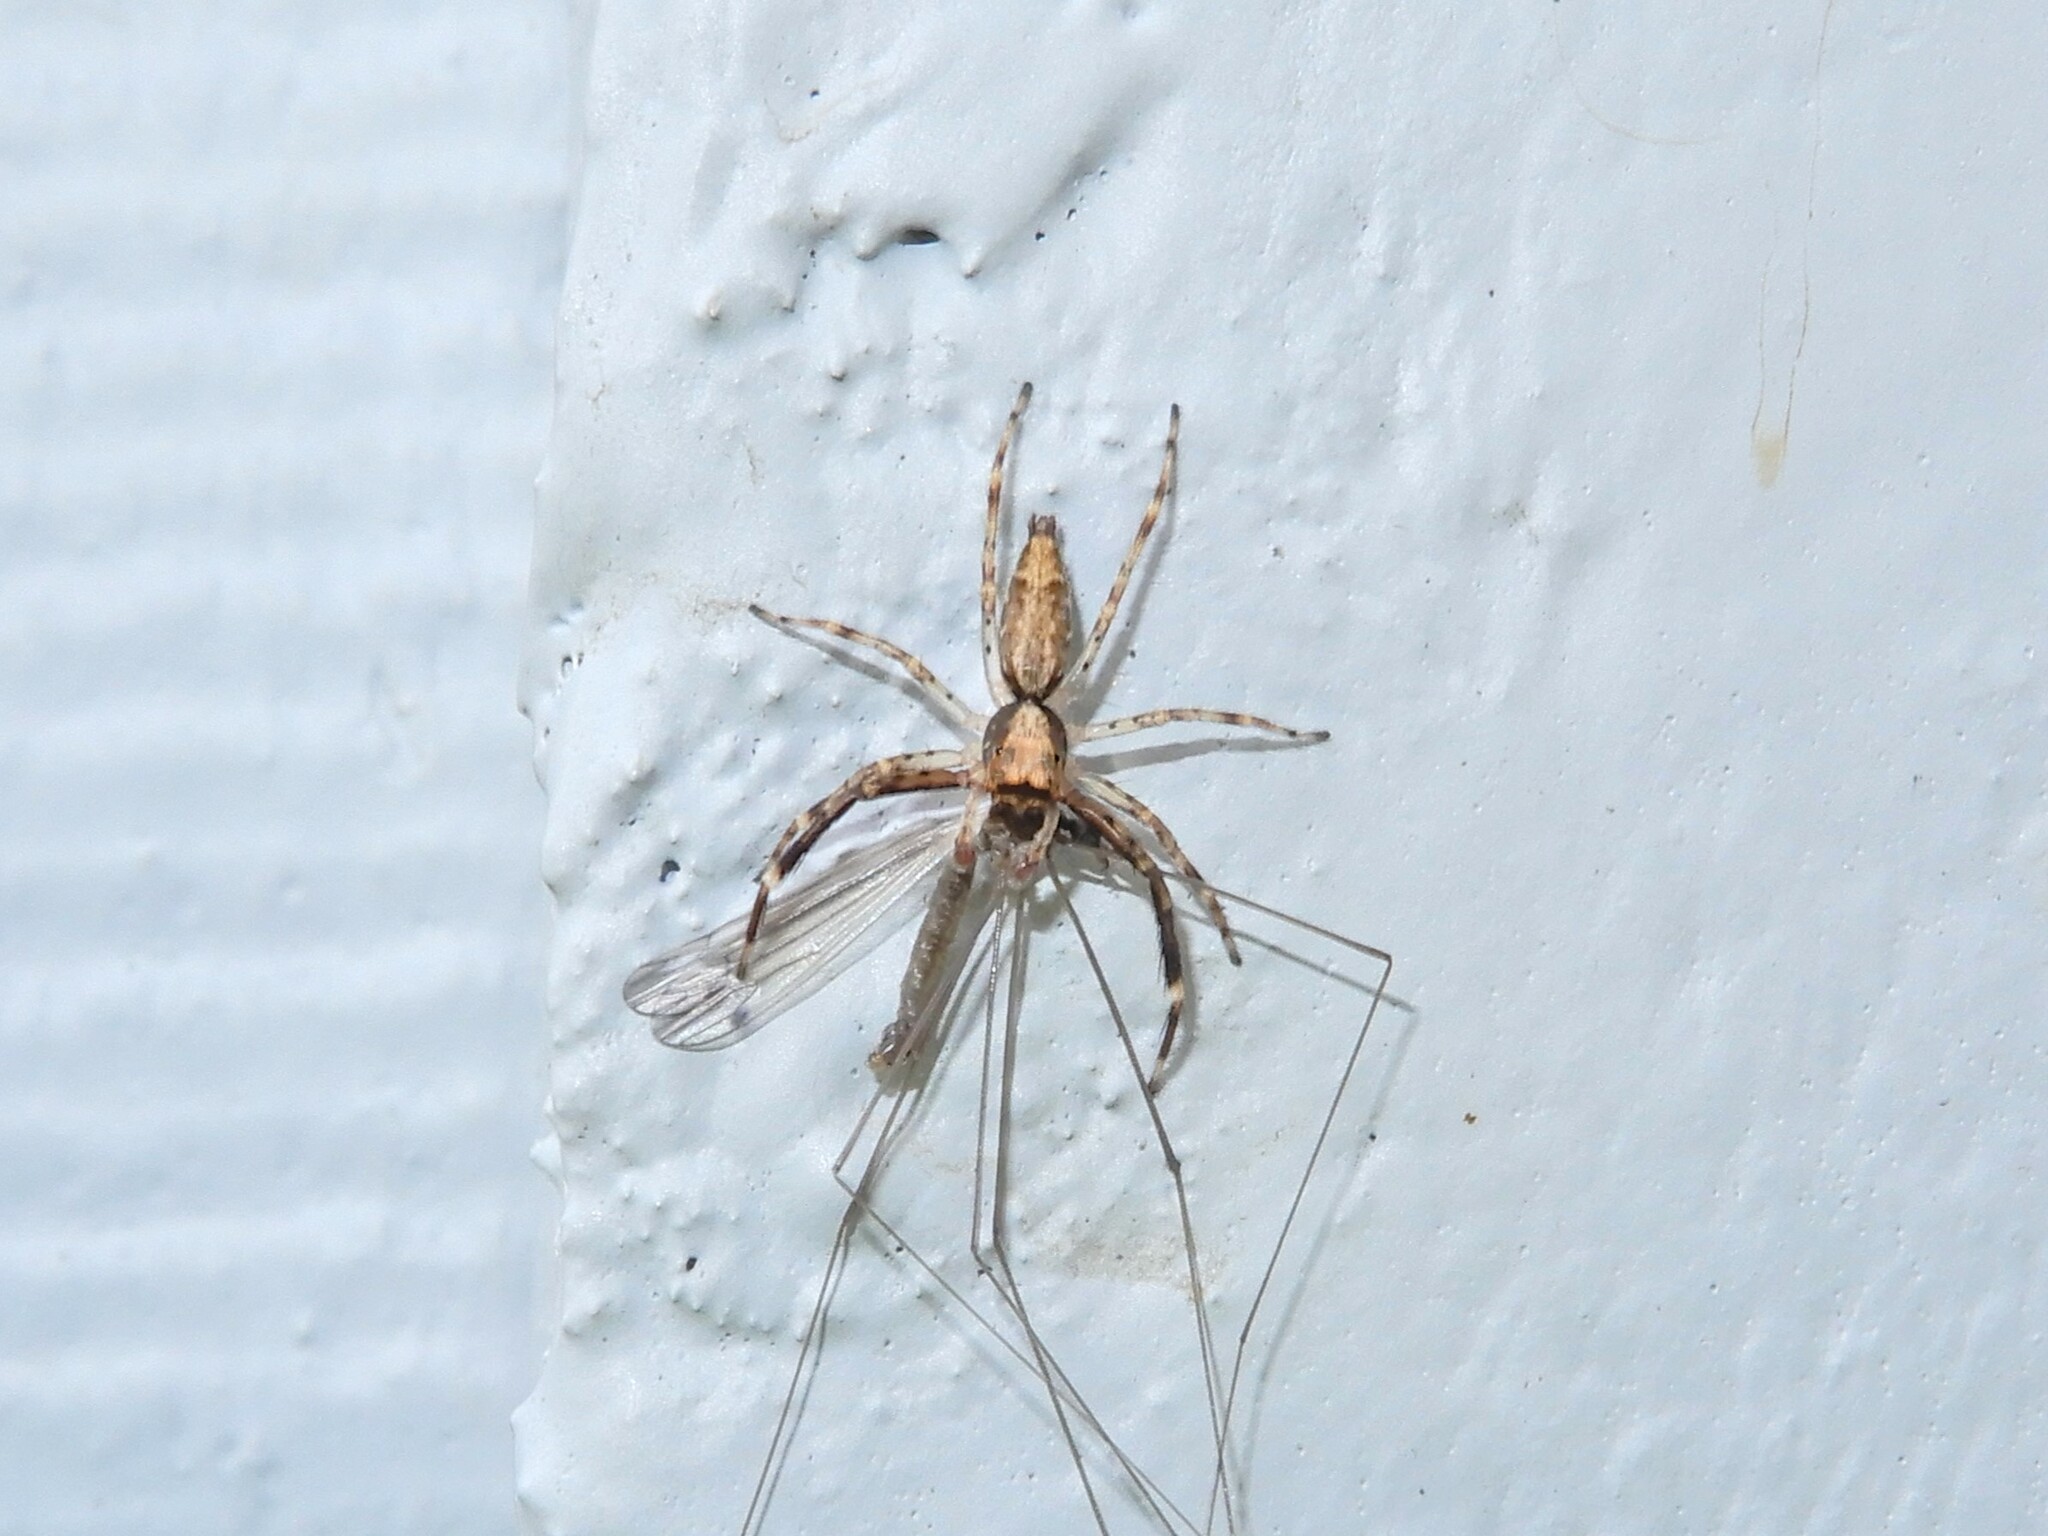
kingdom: Animalia
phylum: Arthropoda
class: Arachnida
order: Araneae
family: Salticidae
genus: Helpis
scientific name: Helpis minitabunda
